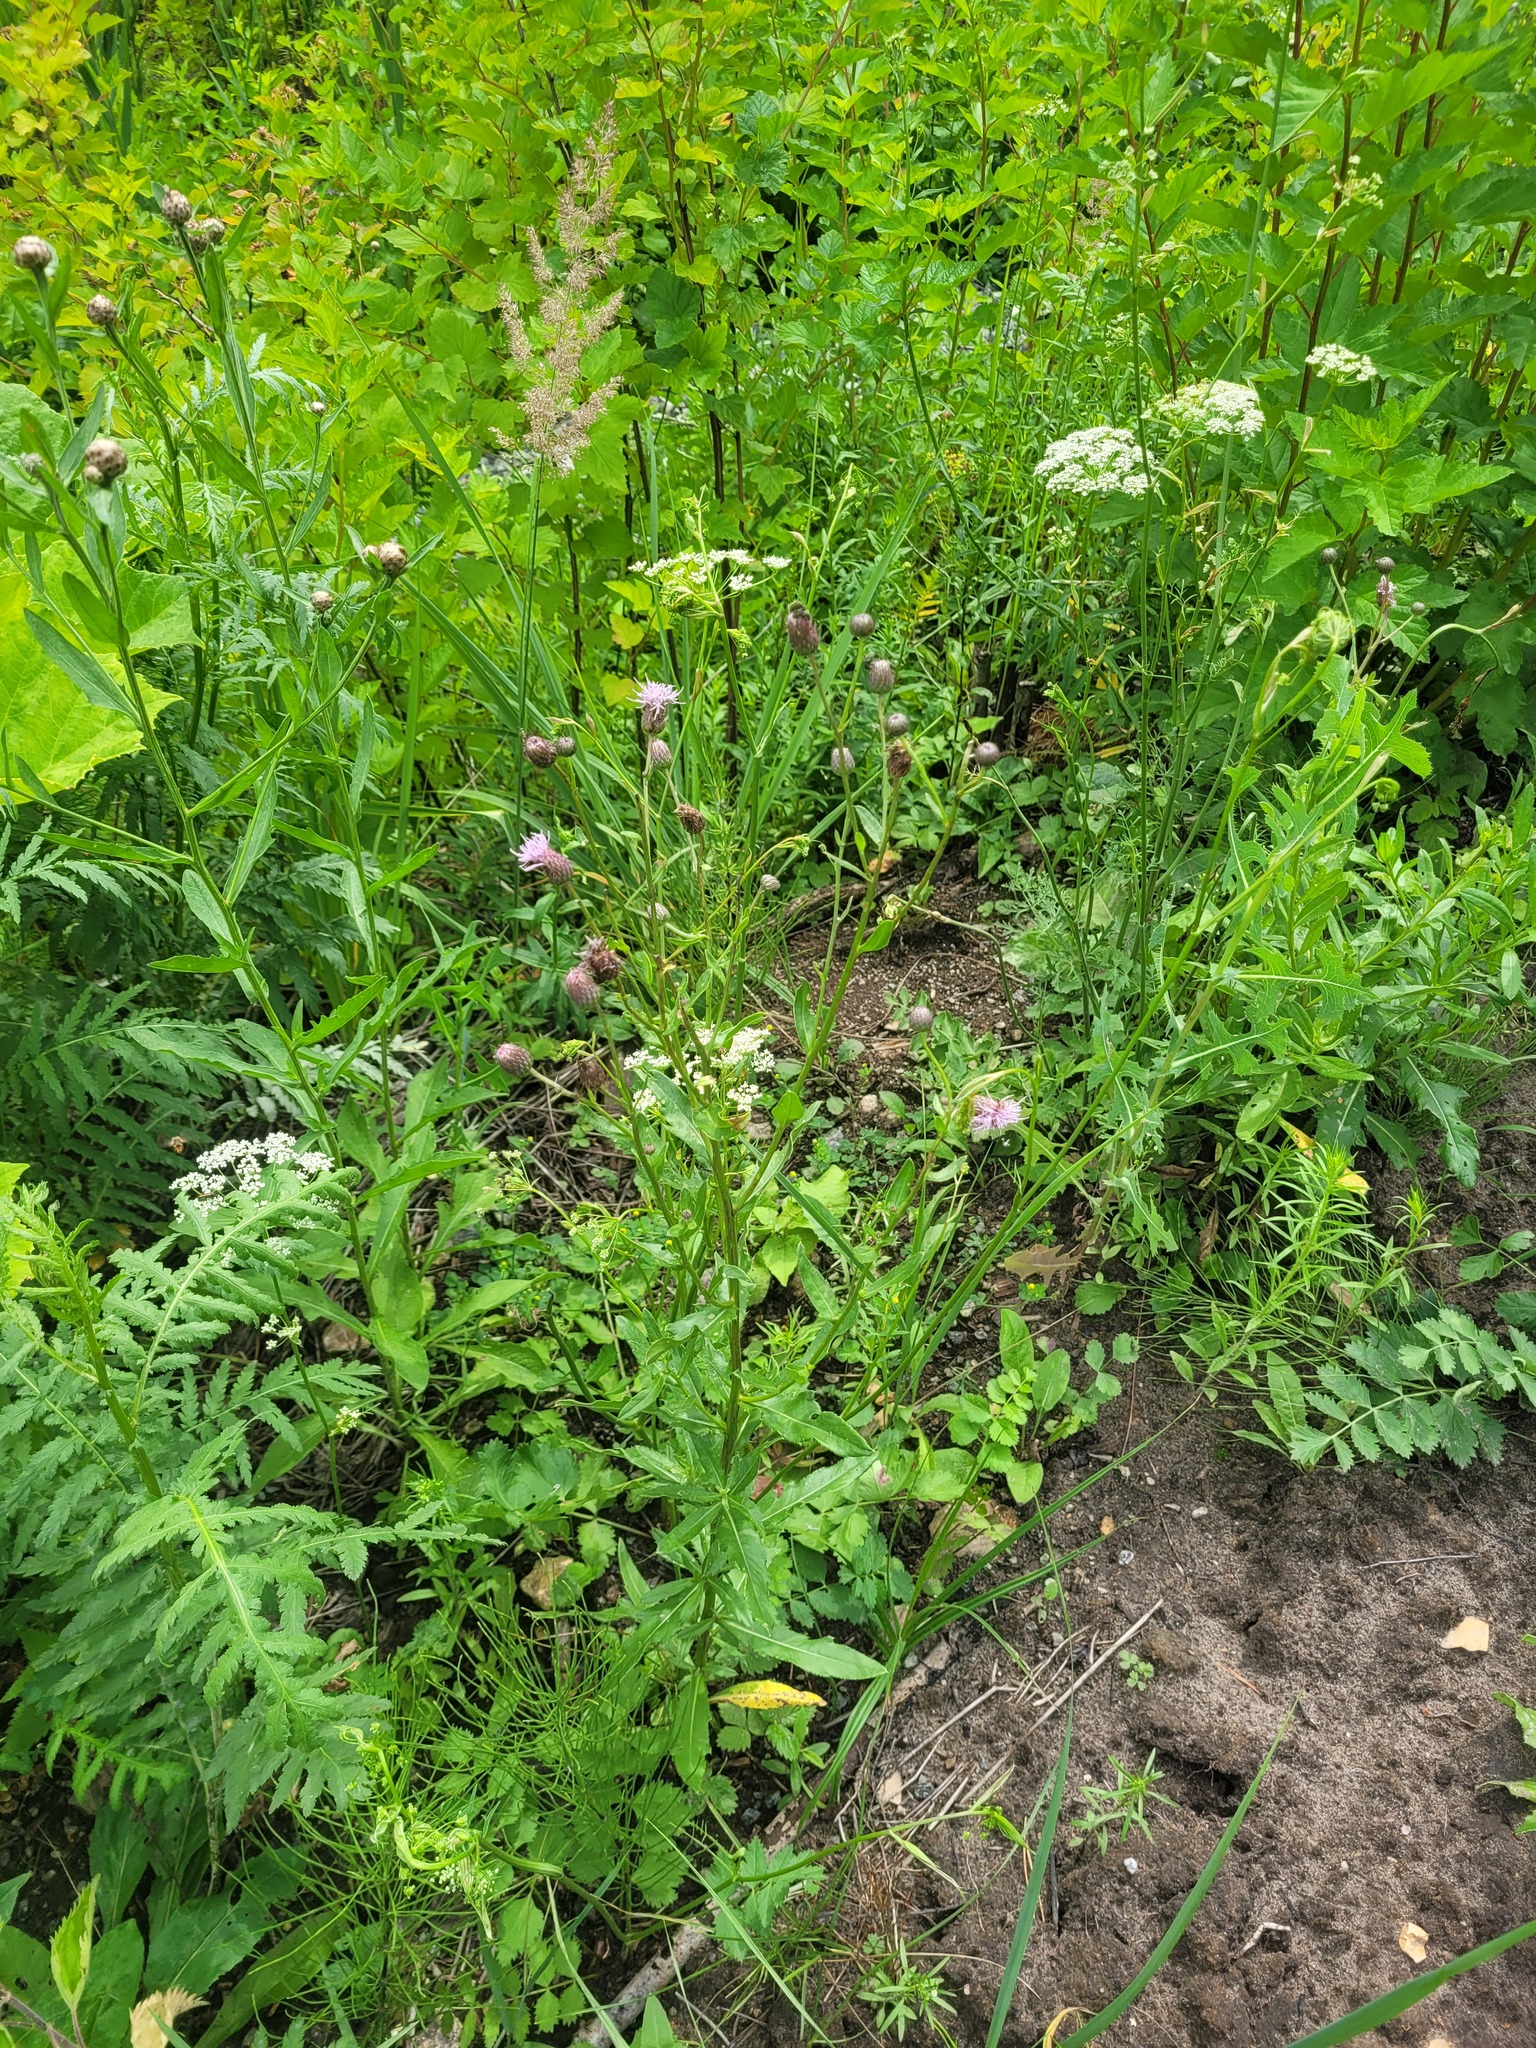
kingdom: Plantae
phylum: Tracheophyta
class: Magnoliopsida
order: Asterales
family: Asteraceae
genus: Cirsium
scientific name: Cirsium arvense
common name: Creeping thistle
